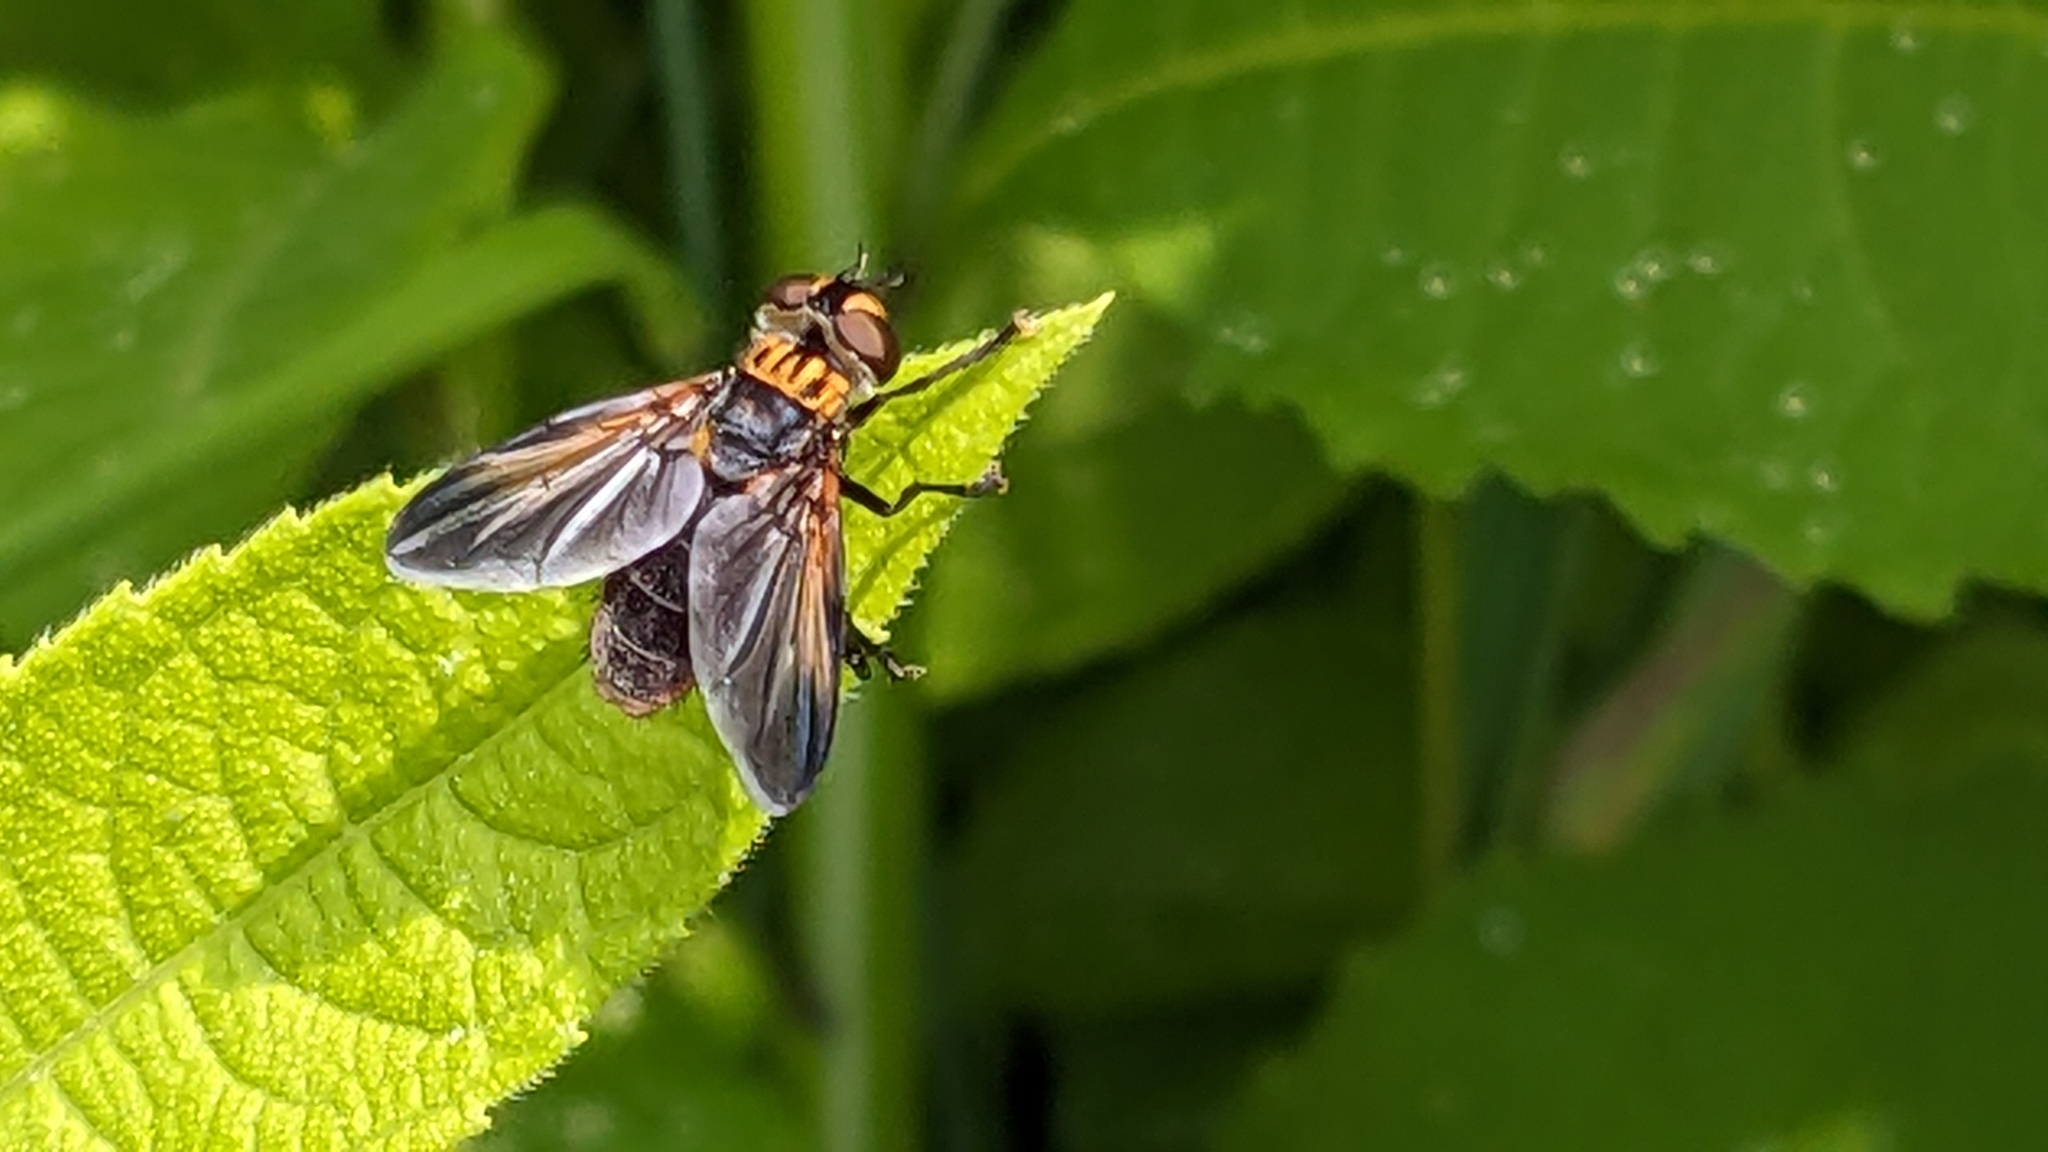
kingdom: Animalia
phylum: Arthropoda
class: Insecta
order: Diptera
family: Tachinidae
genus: Trichopoda
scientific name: Trichopoda pennipes
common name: Tachinid fly
